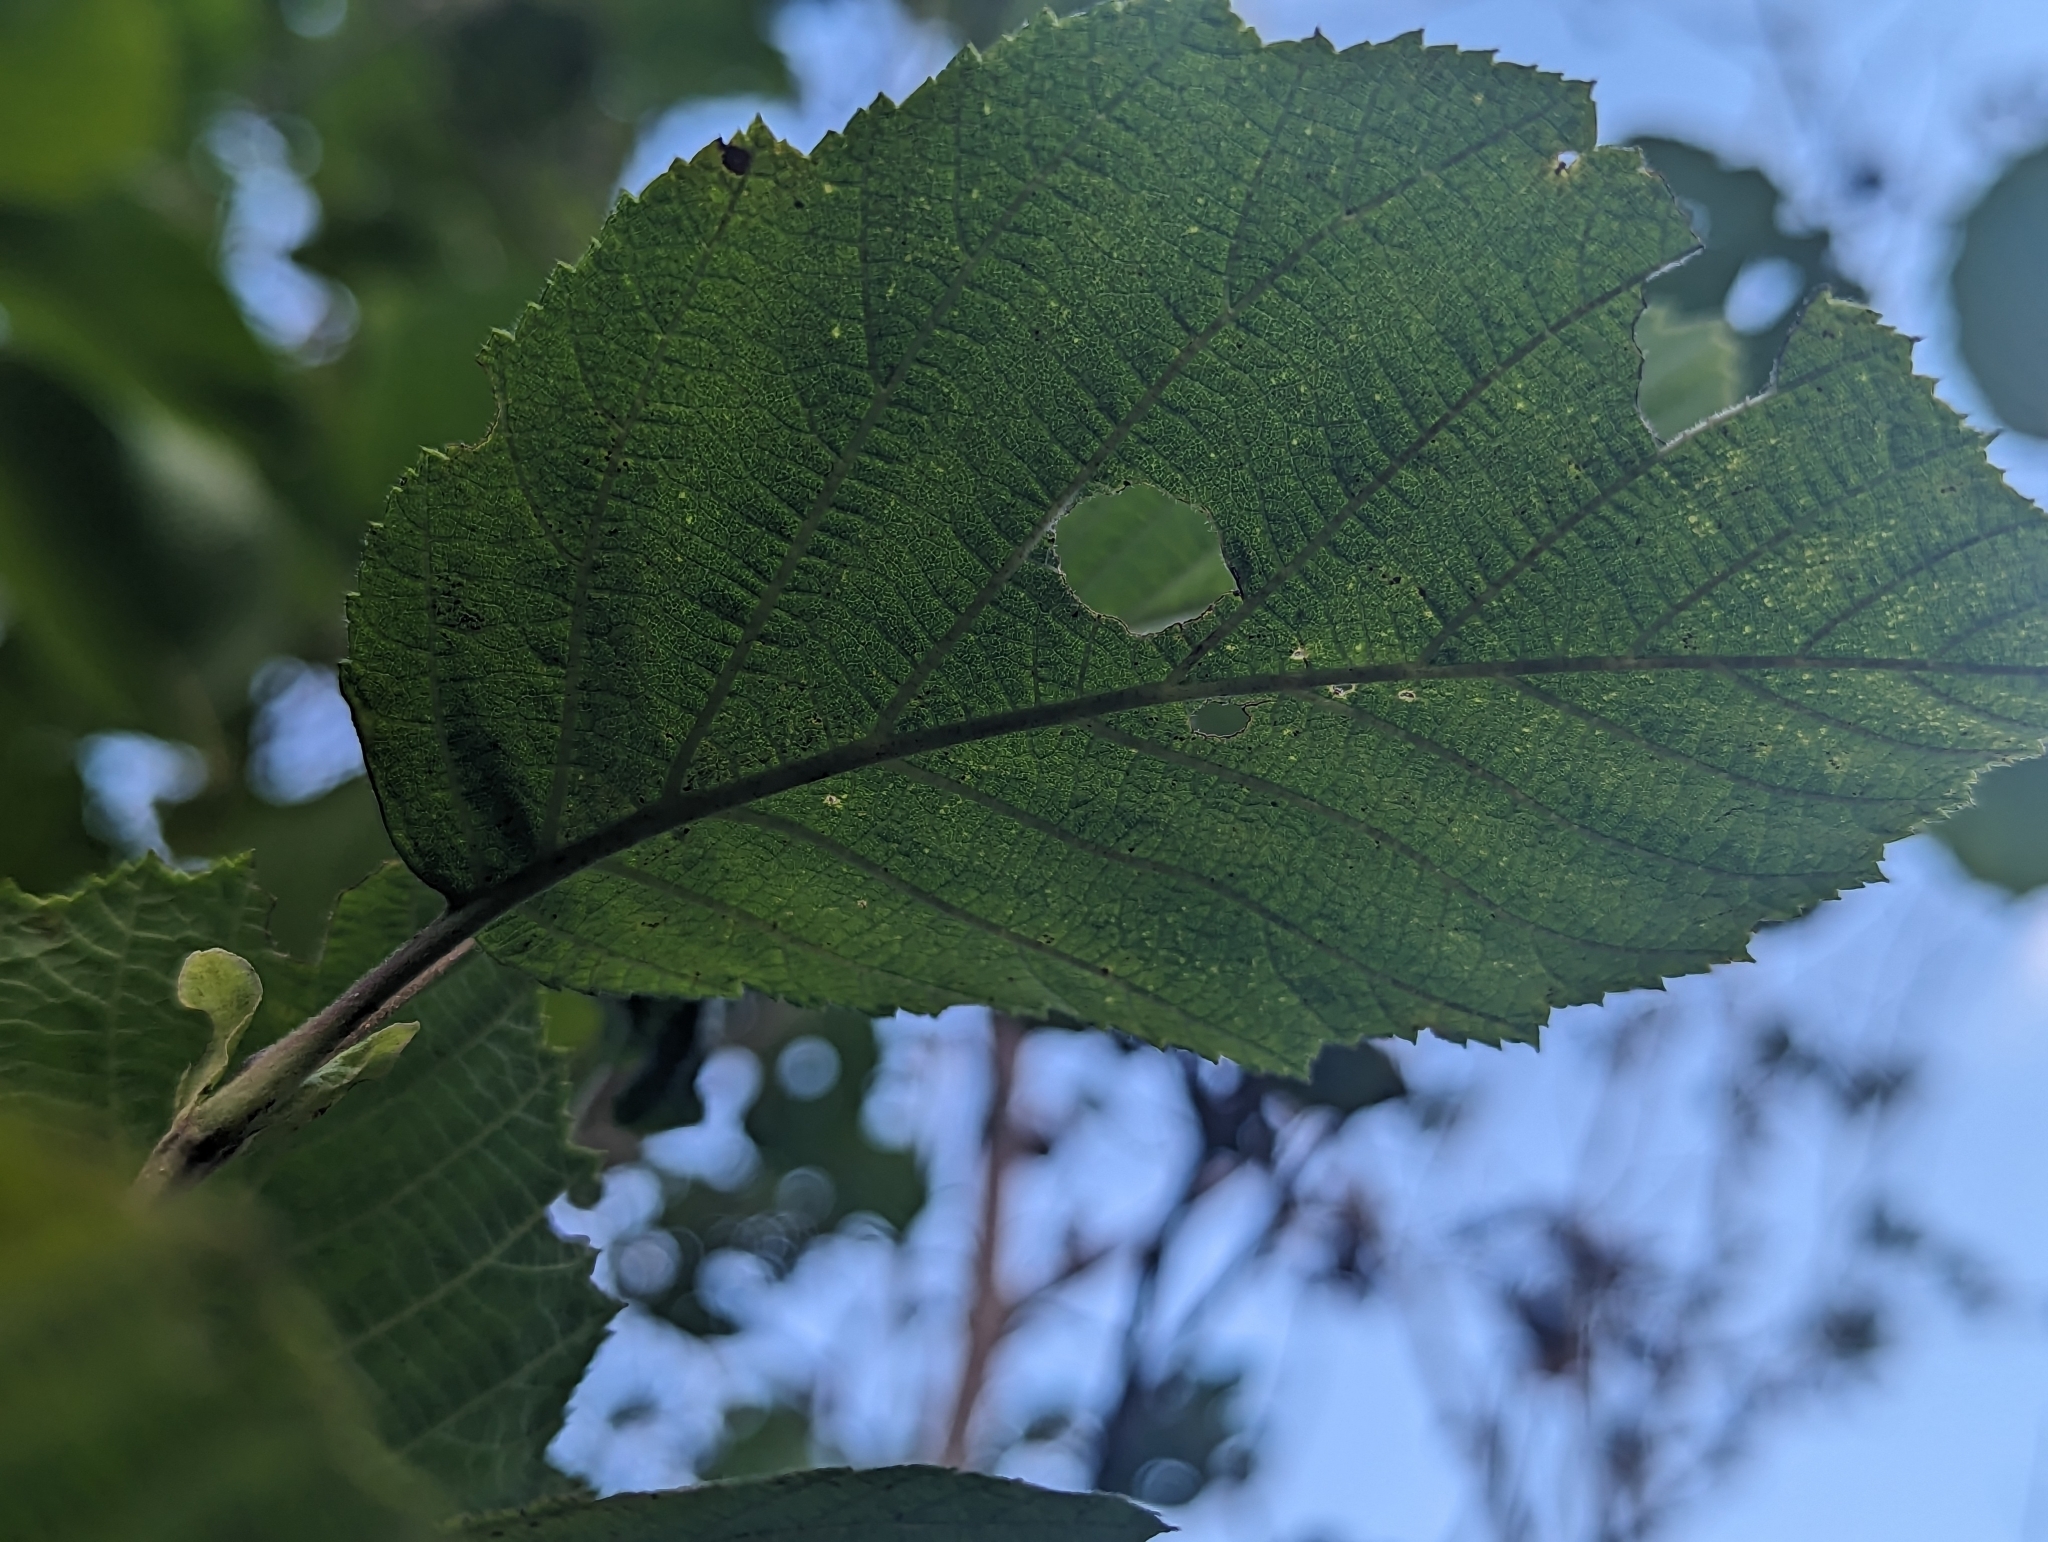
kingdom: Plantae
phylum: Tracheophyta
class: Magnoliopsida
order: Fagales
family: Betulaceae
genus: Alnus
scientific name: Alnus incana
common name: Grey alder
